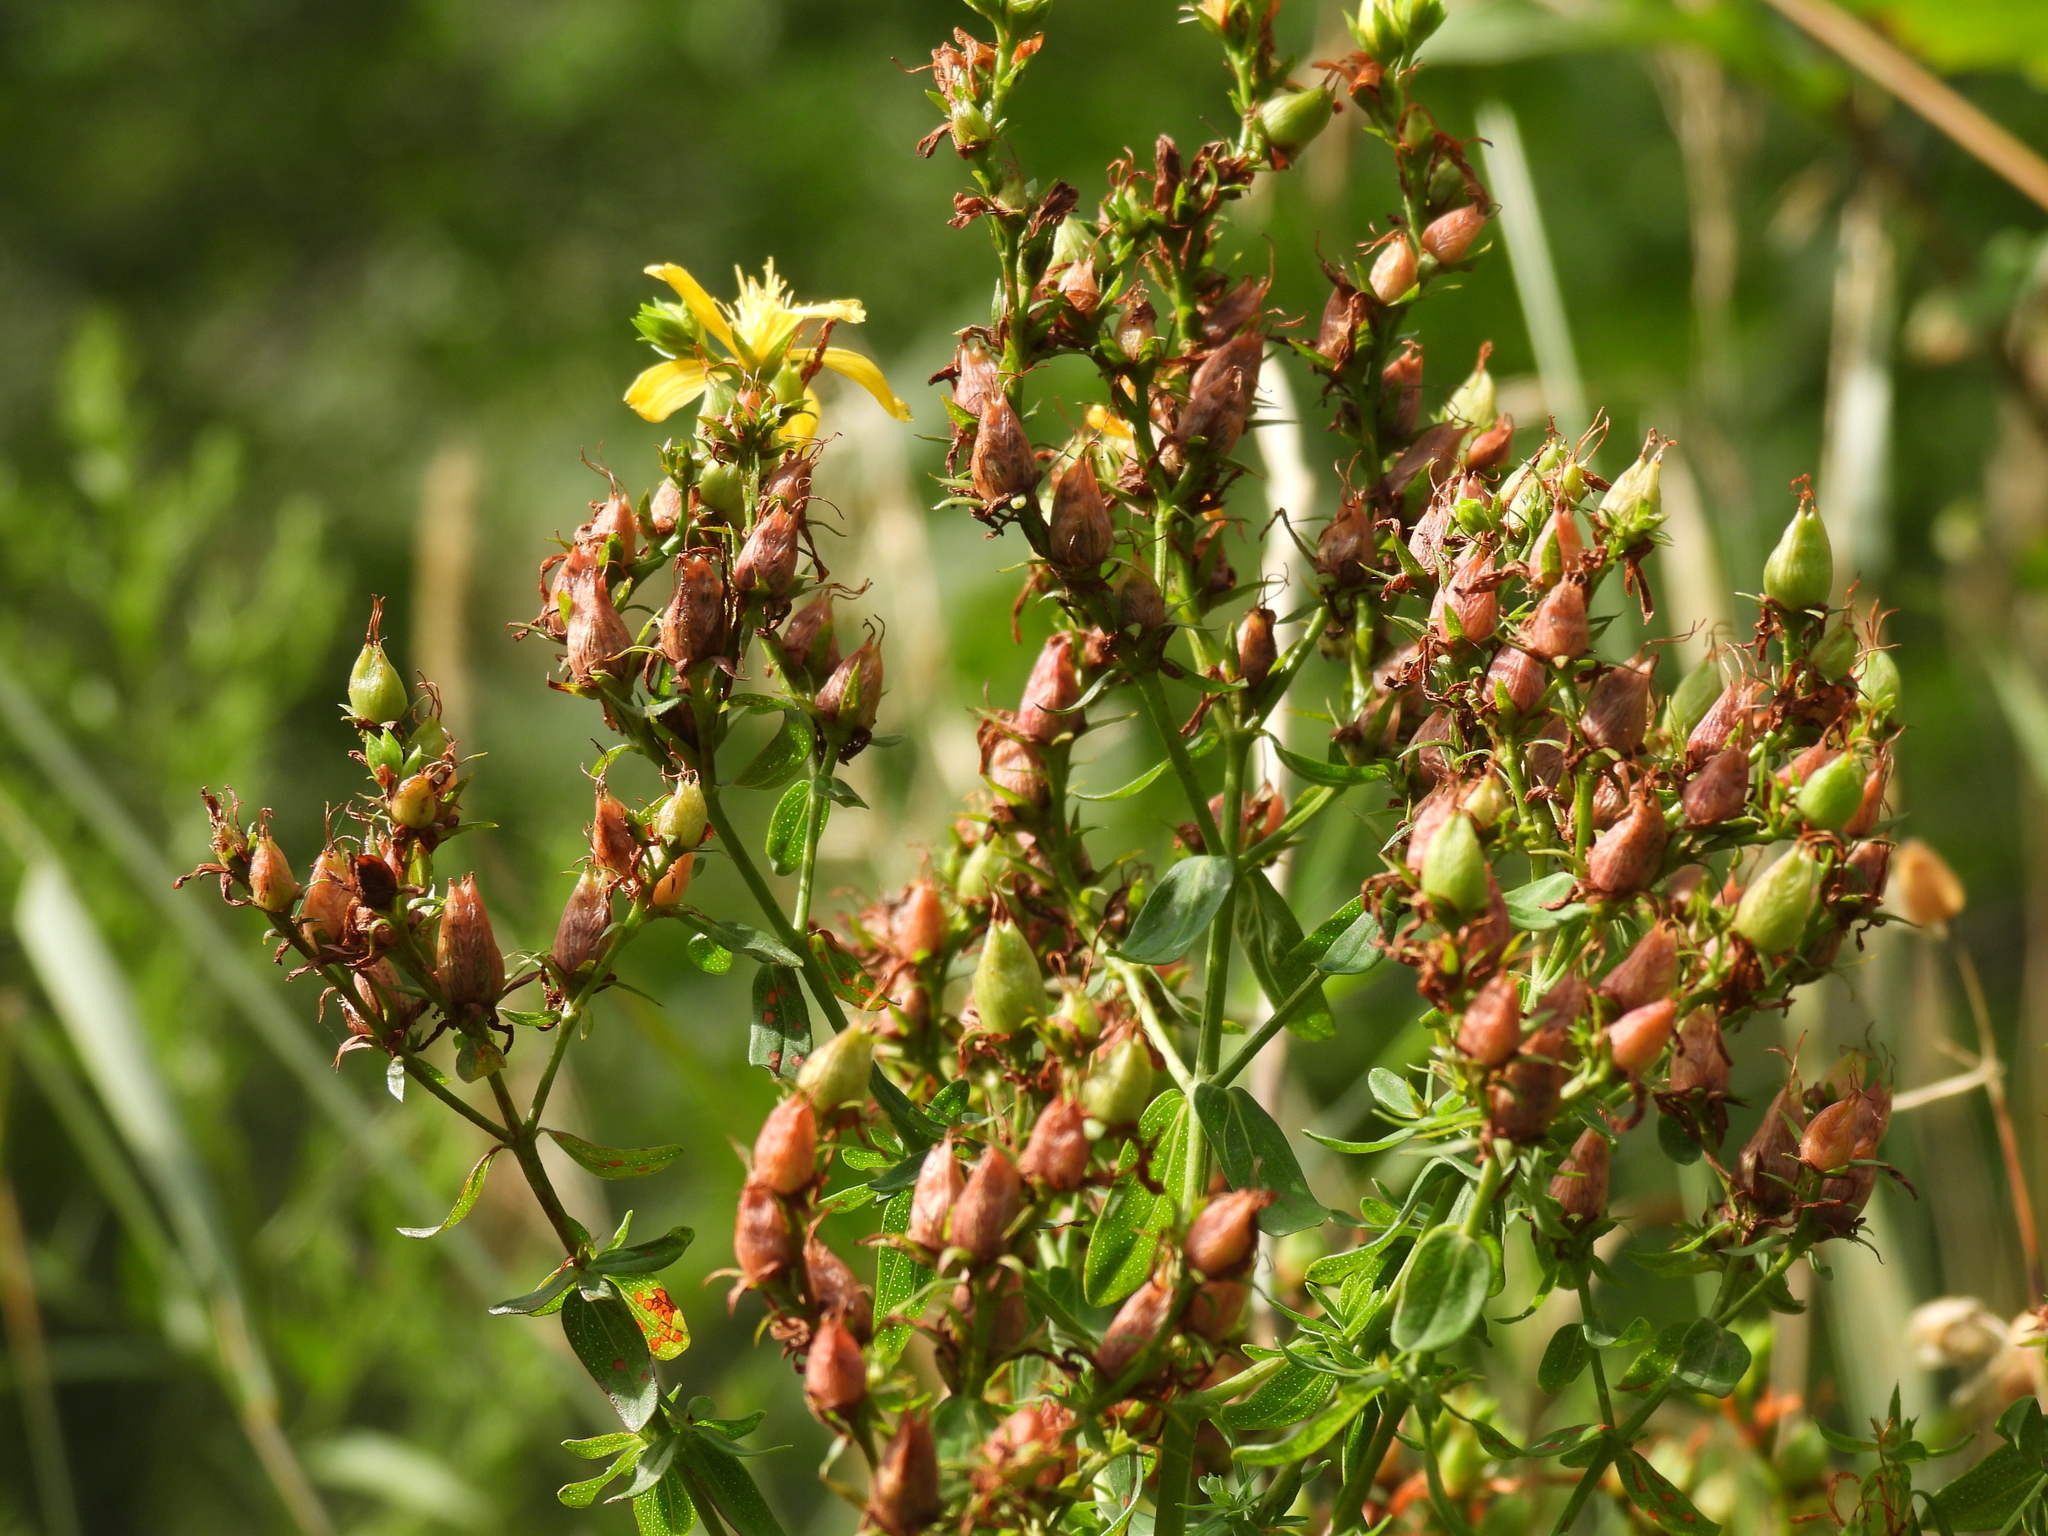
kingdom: Plantae
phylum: Tracheophyta
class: Magnoliopsida
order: Malpighiales
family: Hypericaceae
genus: Hypericum
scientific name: Hypericum perforatum
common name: Common st. johnswort
